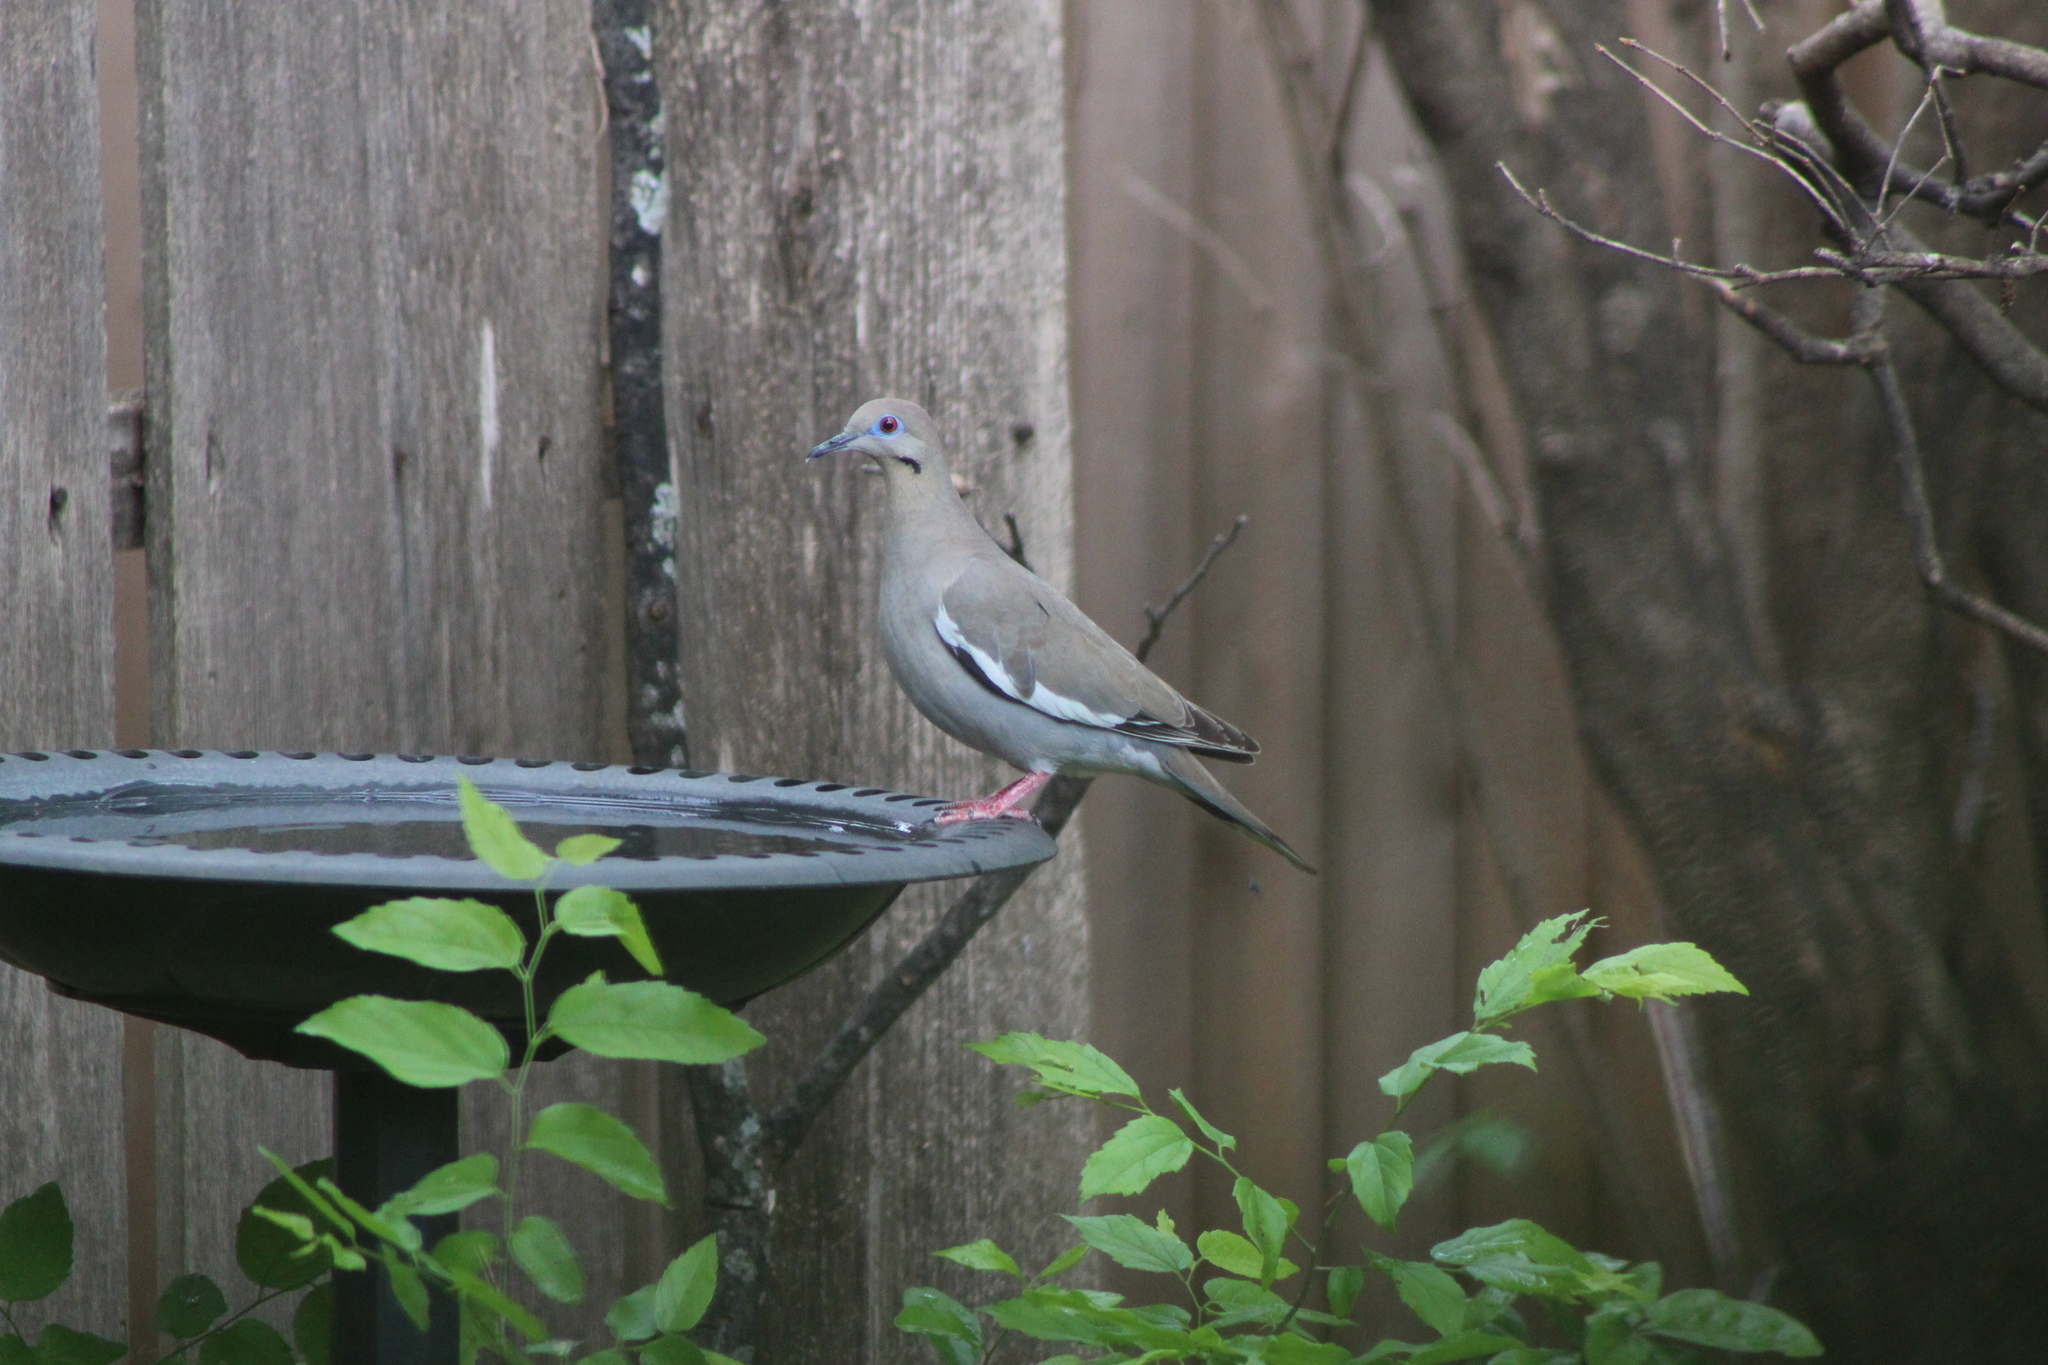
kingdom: Animalia
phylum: Chordata
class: Aves
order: Columbiformes
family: Columbidae
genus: Zenaida
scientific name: Zenaida asiatica
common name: White-winged dove
